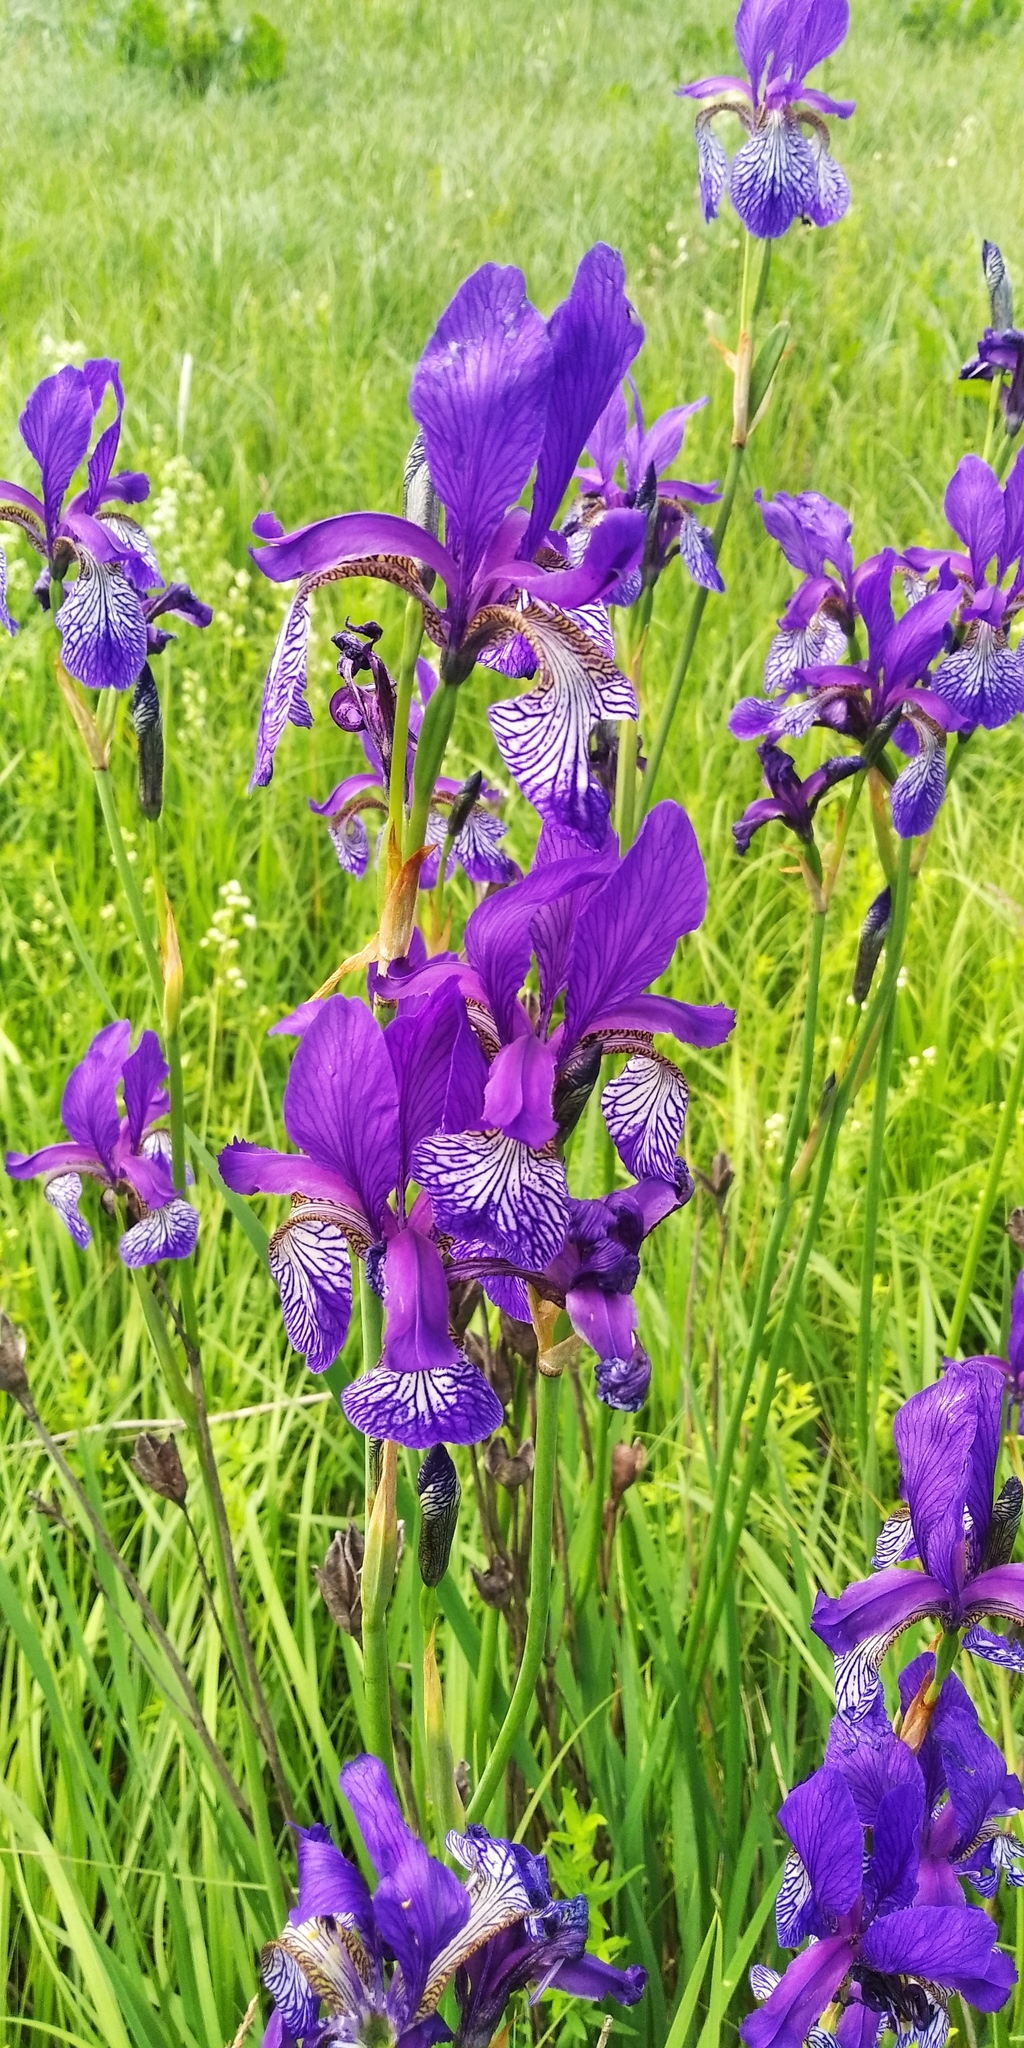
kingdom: Plantae
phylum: Tracheophyta
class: Liliopsida
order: Asparagales
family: Iridaceae
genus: Iris
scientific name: Iris sibirica
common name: Siberian iris
